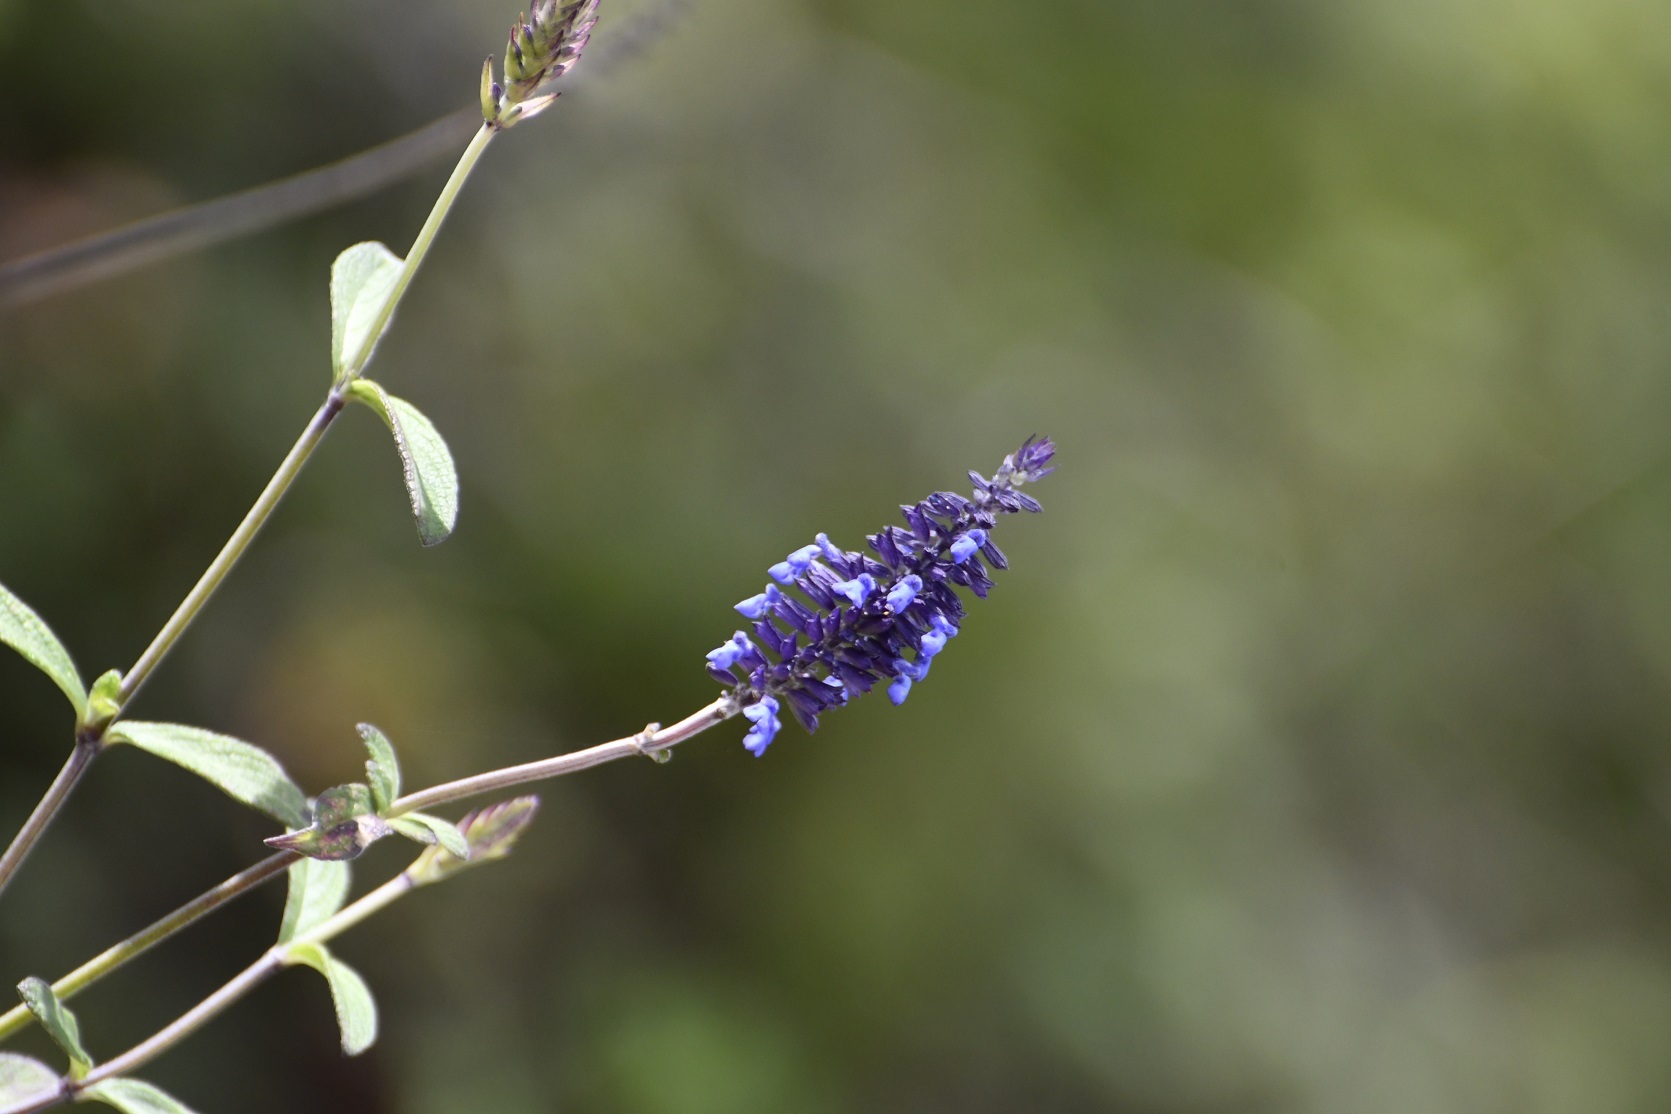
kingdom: Plantae
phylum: Tracheophyta
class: Magnoliopsida
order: Lamiales
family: Lamiaceae
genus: Salvia
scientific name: Salvia lavanduloides
